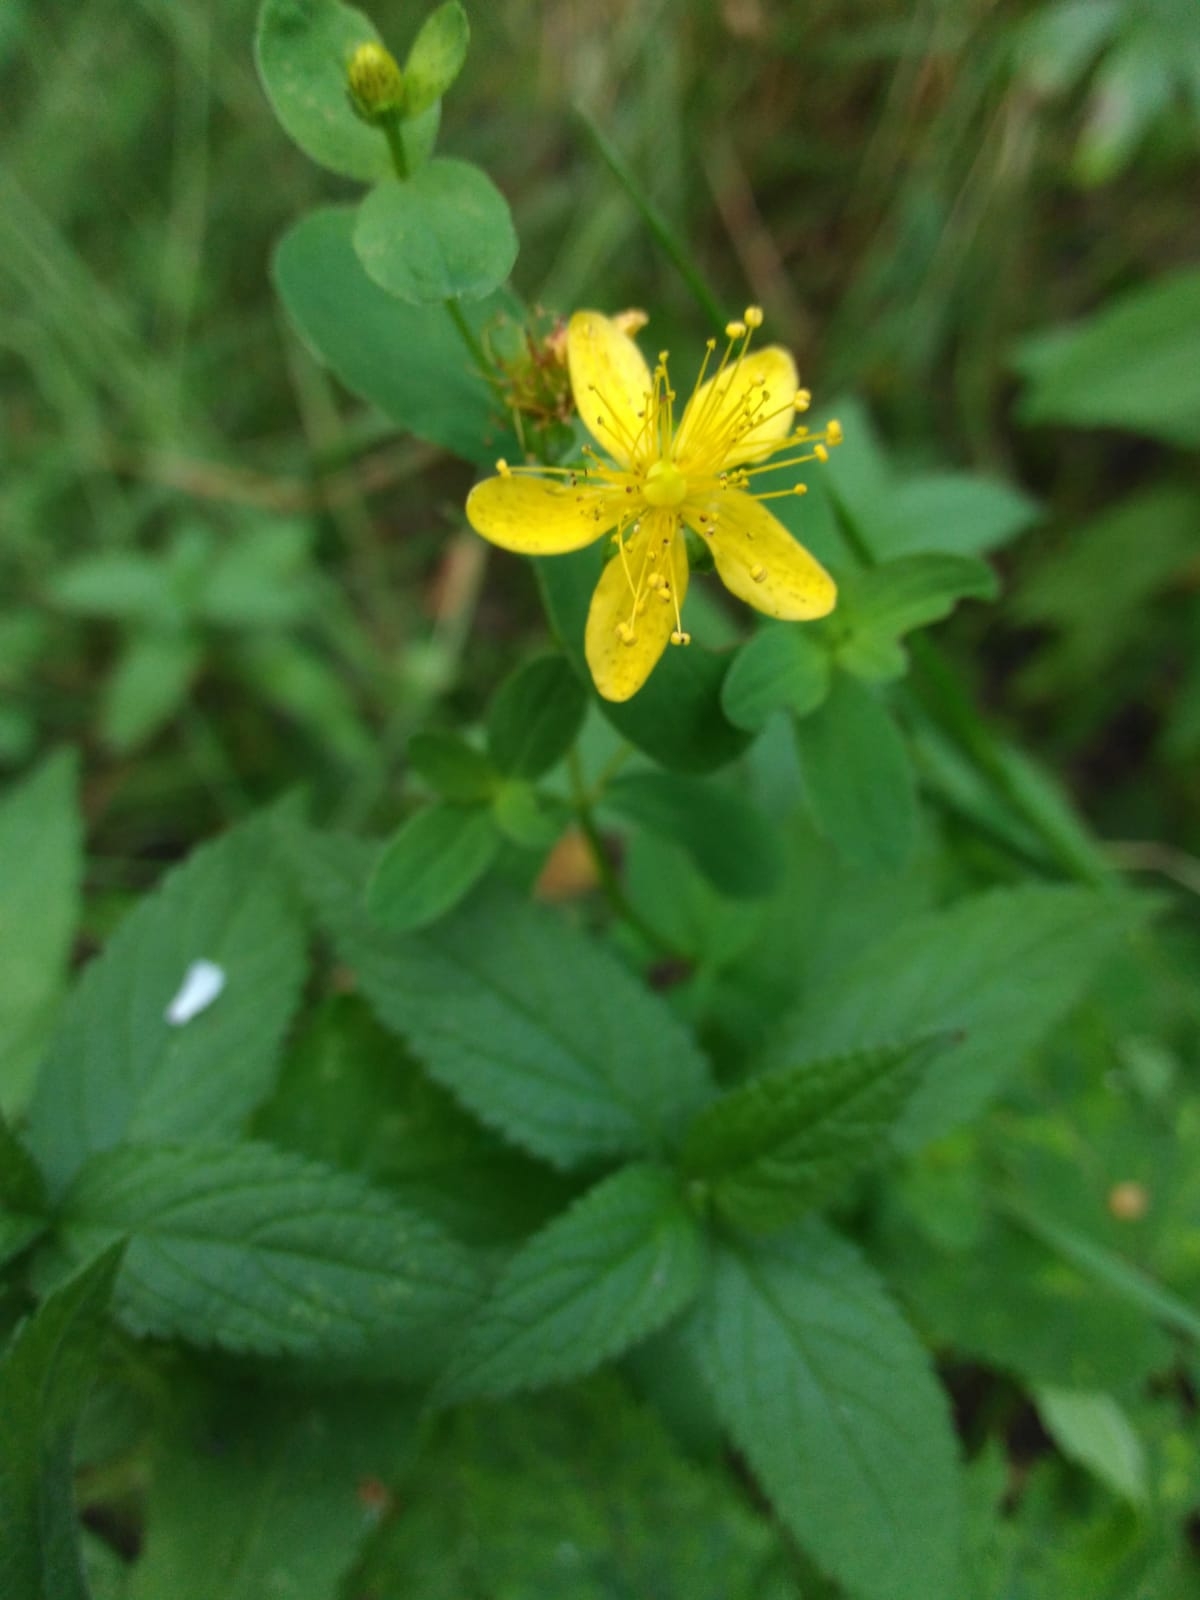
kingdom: Plantae
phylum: Tracheophyta
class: Magnoliopsida
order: Malpighiales
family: Hypericaceae
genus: Hypericum
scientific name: Hypericum maculatum
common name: Imperforate st. john's-wort
